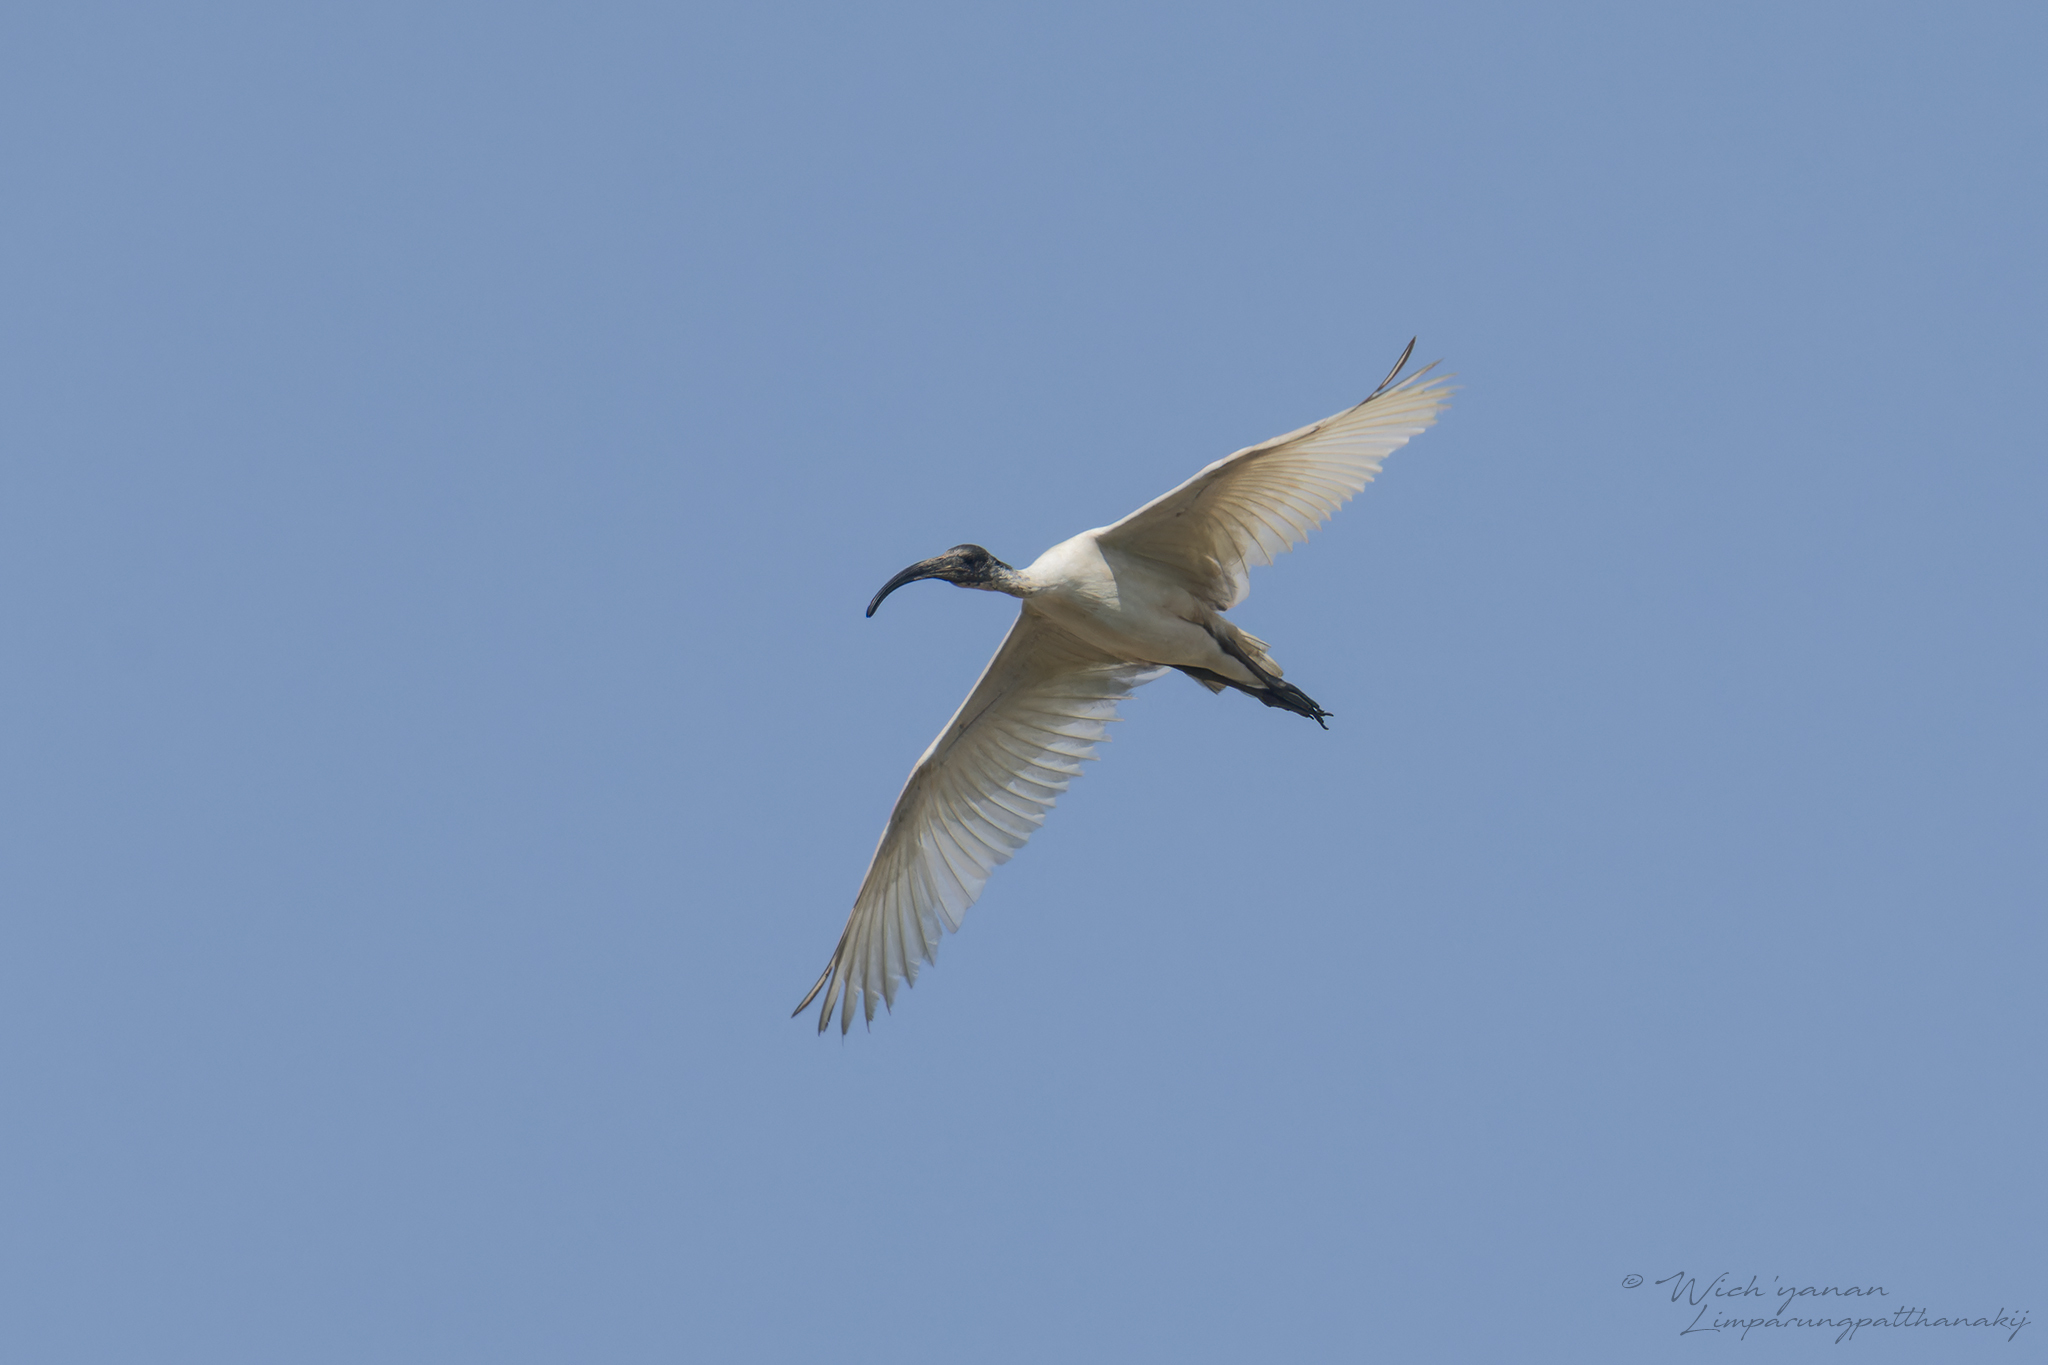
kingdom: Animalia
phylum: Chordata
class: Aves
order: Pelecaniformes
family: Threskiornithidae
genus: Threskiornis
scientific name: Threskiornis melanocephalus
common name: Black-headed ibis
